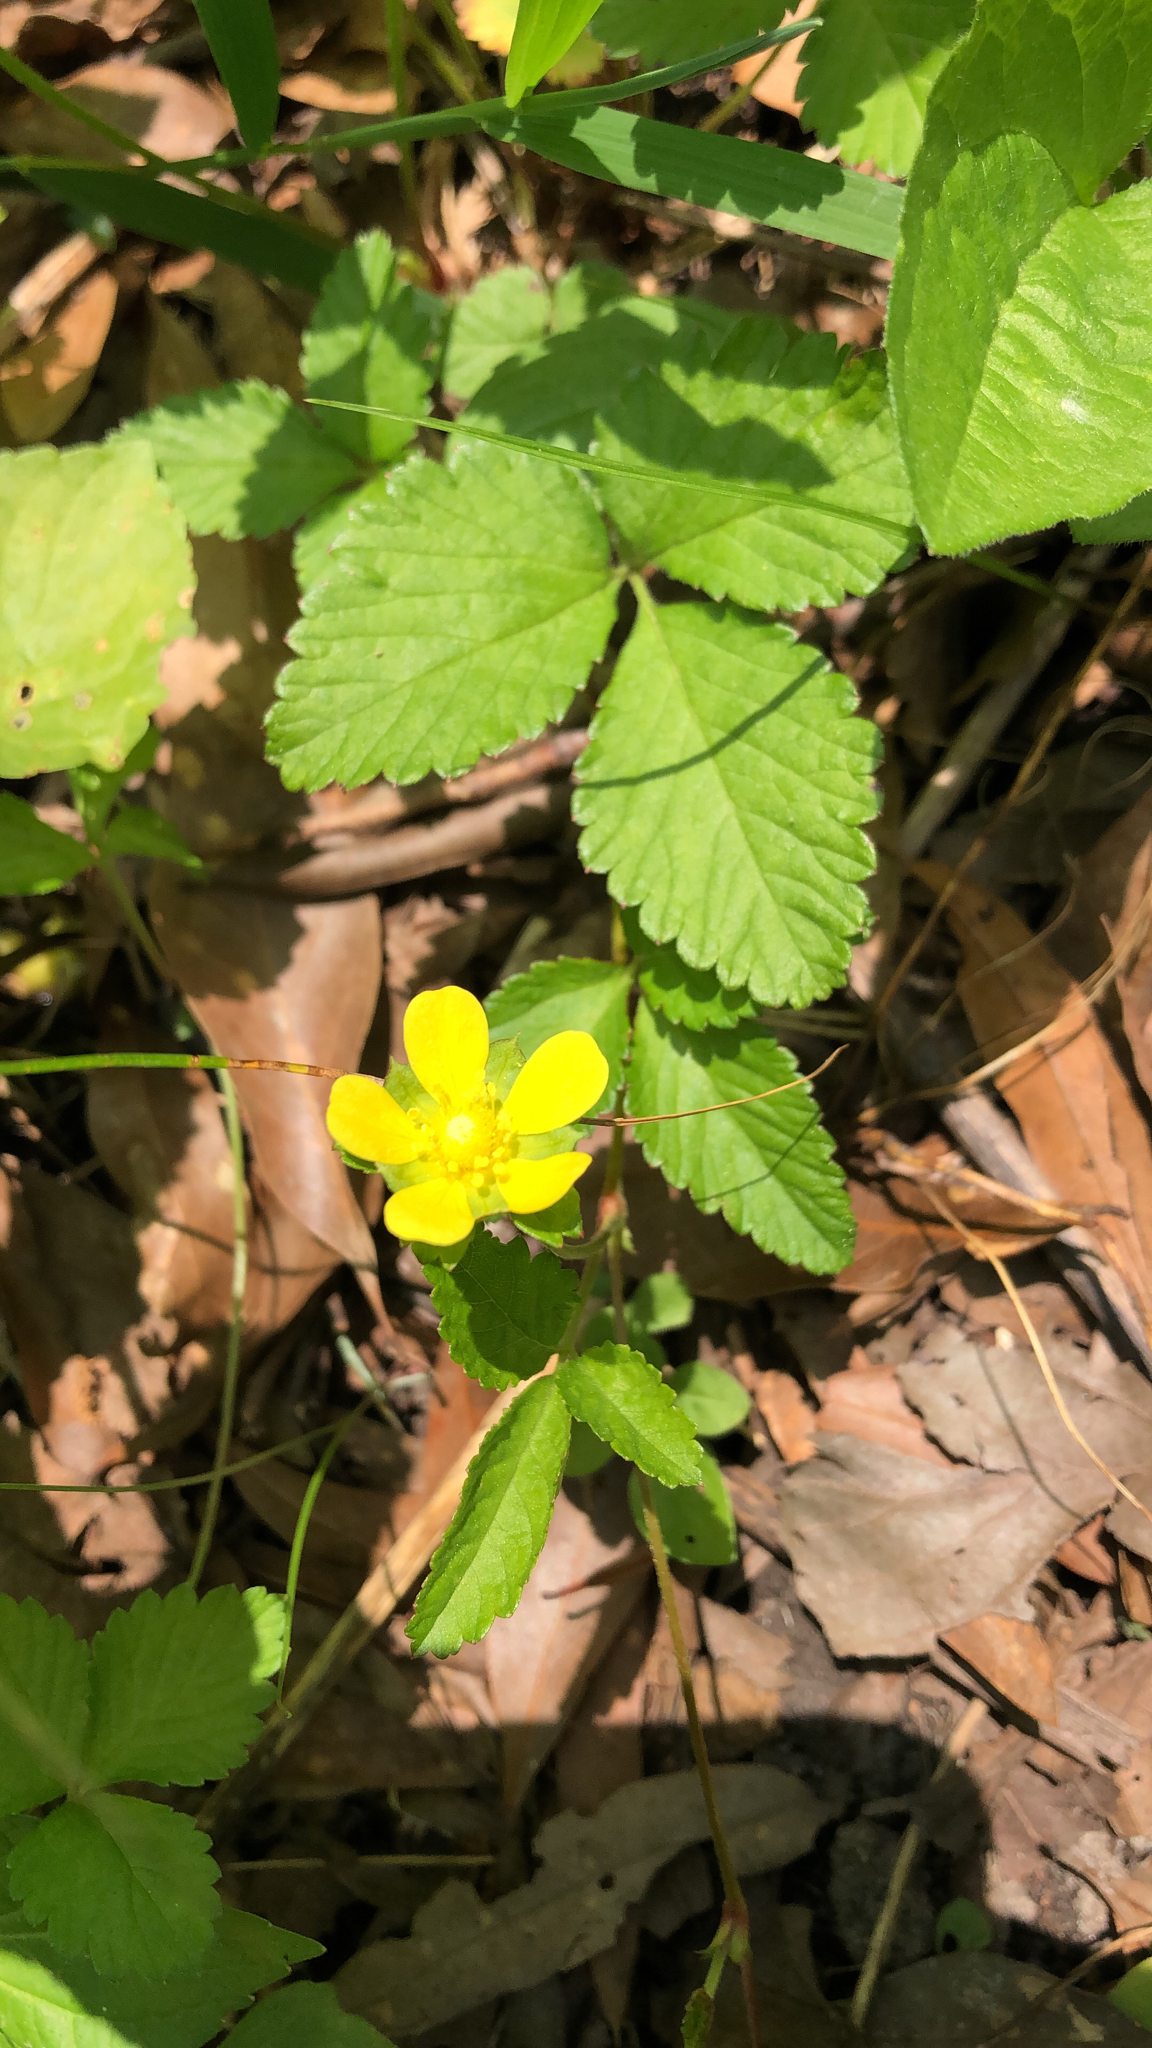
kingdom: Plantae
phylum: Tracheophyta
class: Magnoliopsida
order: Rosales
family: Rosaceae
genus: Potentilla
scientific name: Potentilla indica
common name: Yellow-flowered strawberry
